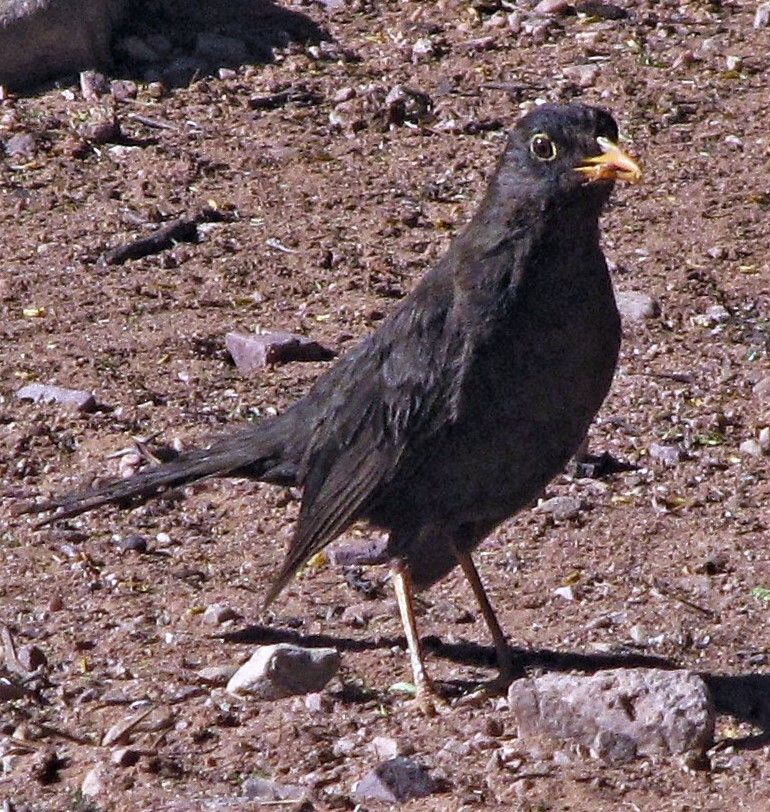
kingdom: Animalia
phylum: Chordata
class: Aves
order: Passeriformes
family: Turdidae
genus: Turdus
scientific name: Turdus chiguanco
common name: Chiguanco thrush
